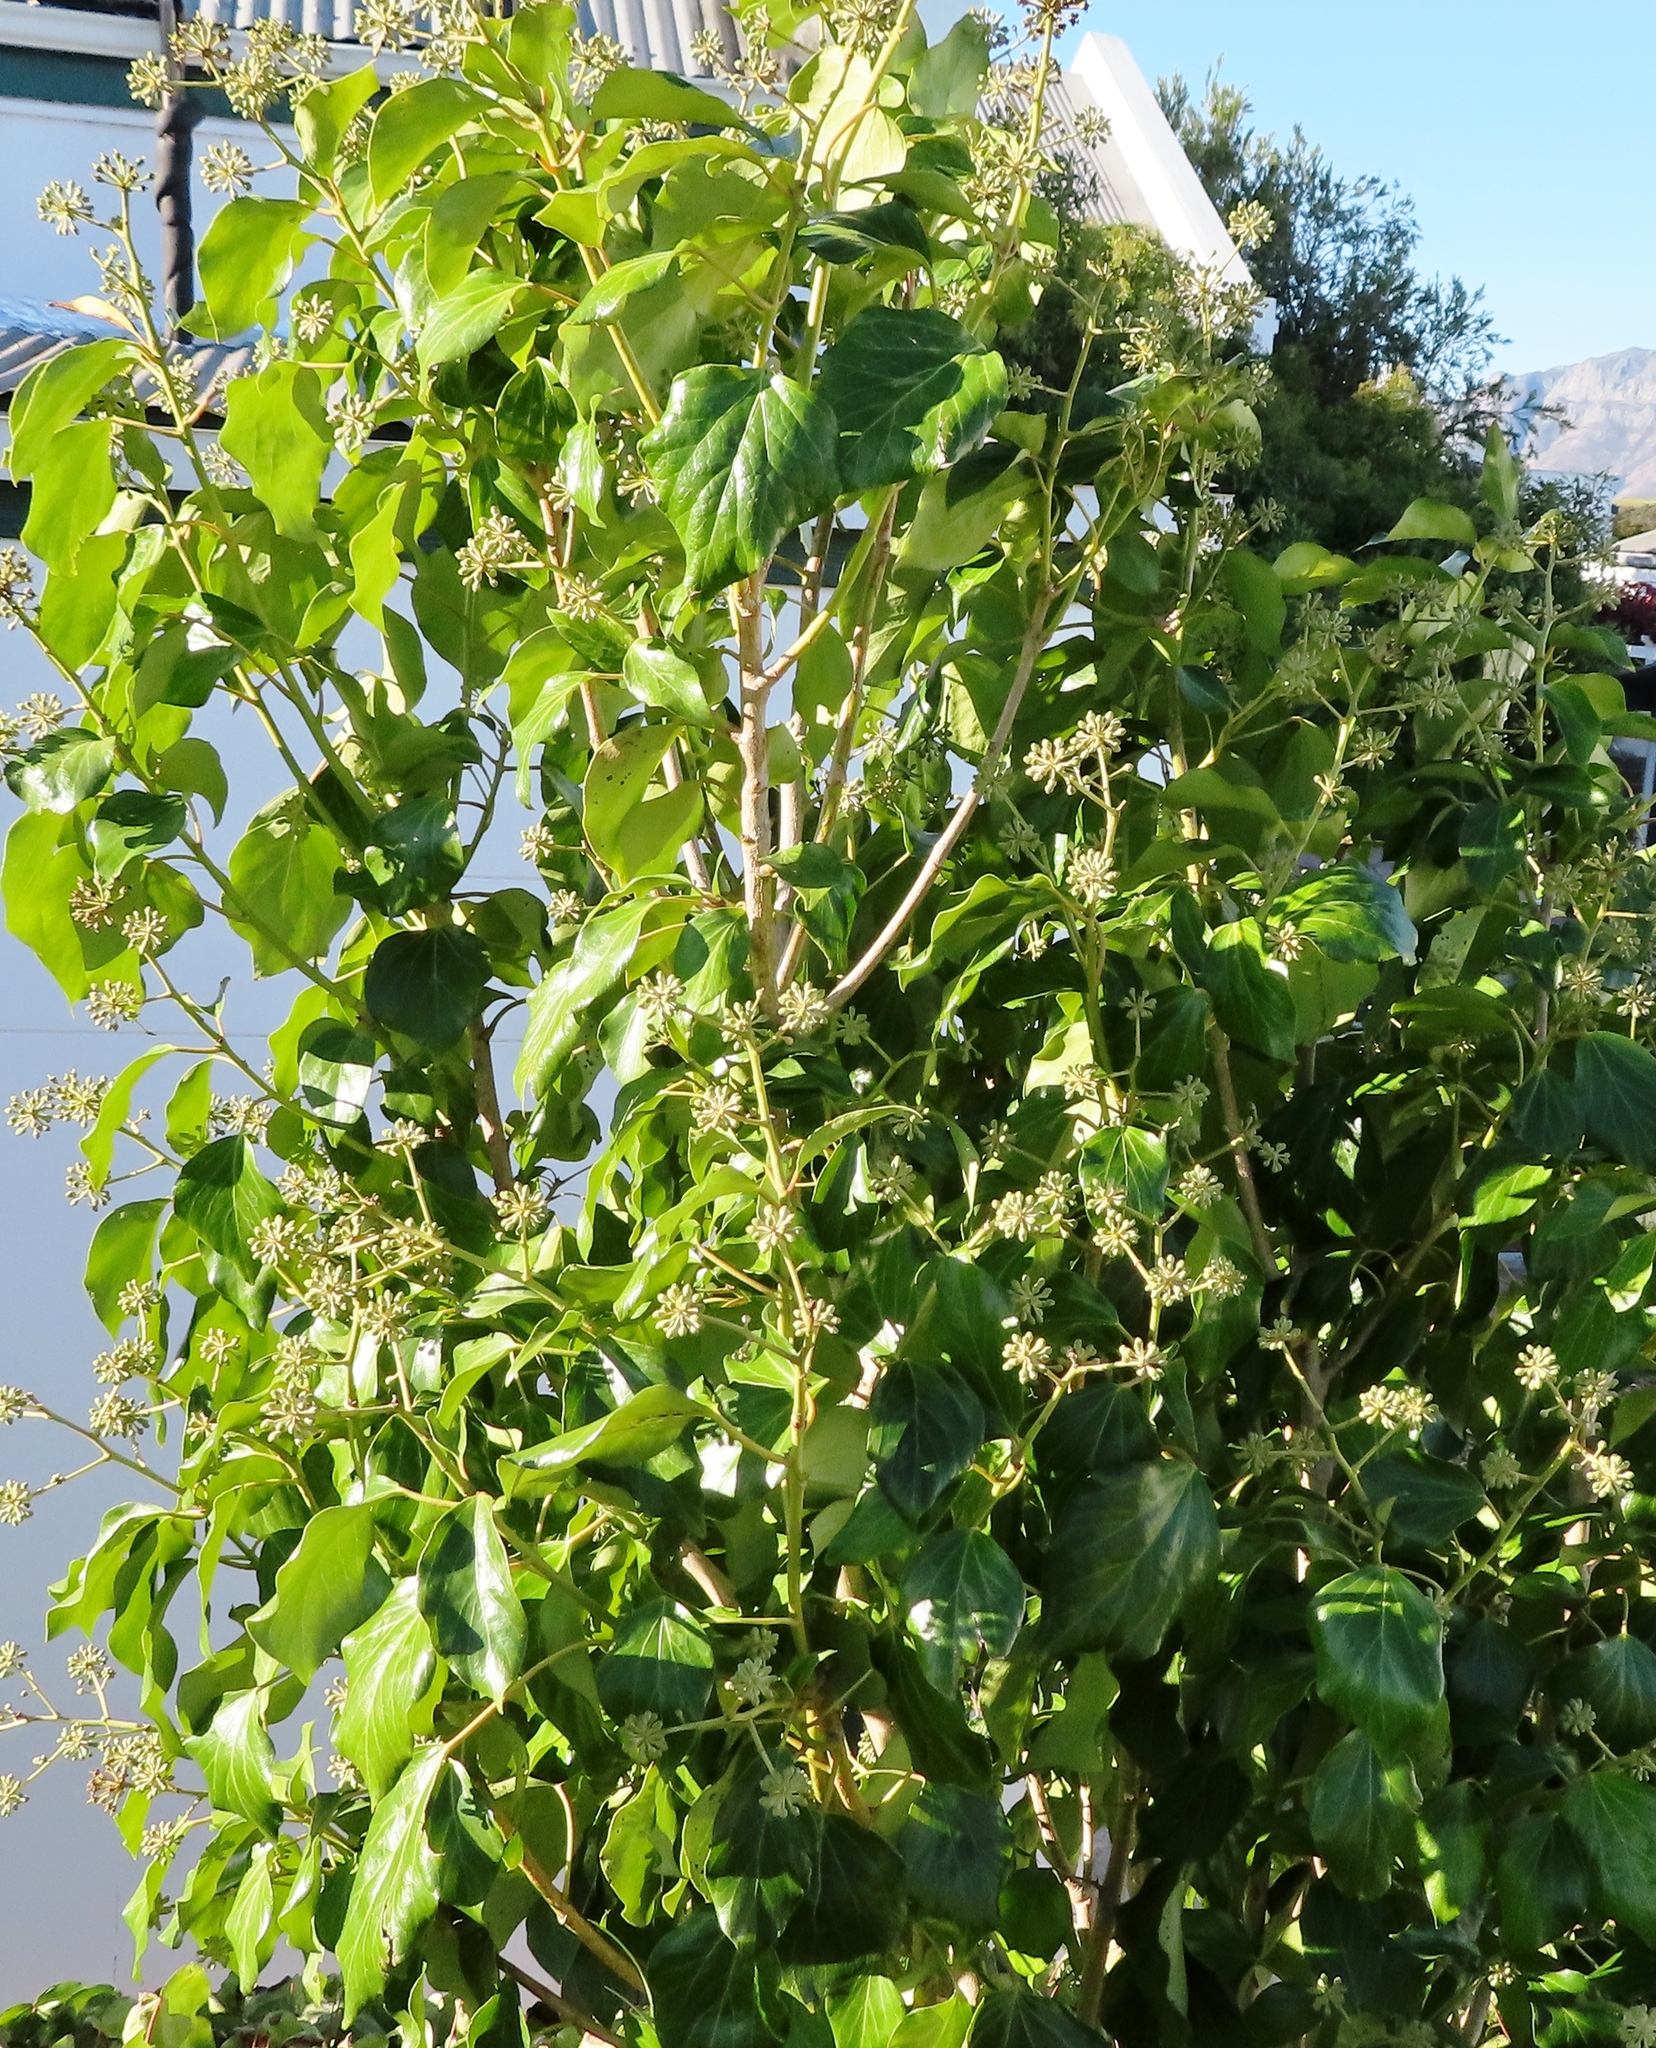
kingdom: Plantae
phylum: Tracheophyta
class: Magnoliopsida
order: Apiales
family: Araliaceae
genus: Hedera
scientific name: Hedera canariensis
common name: Madeira ivy
